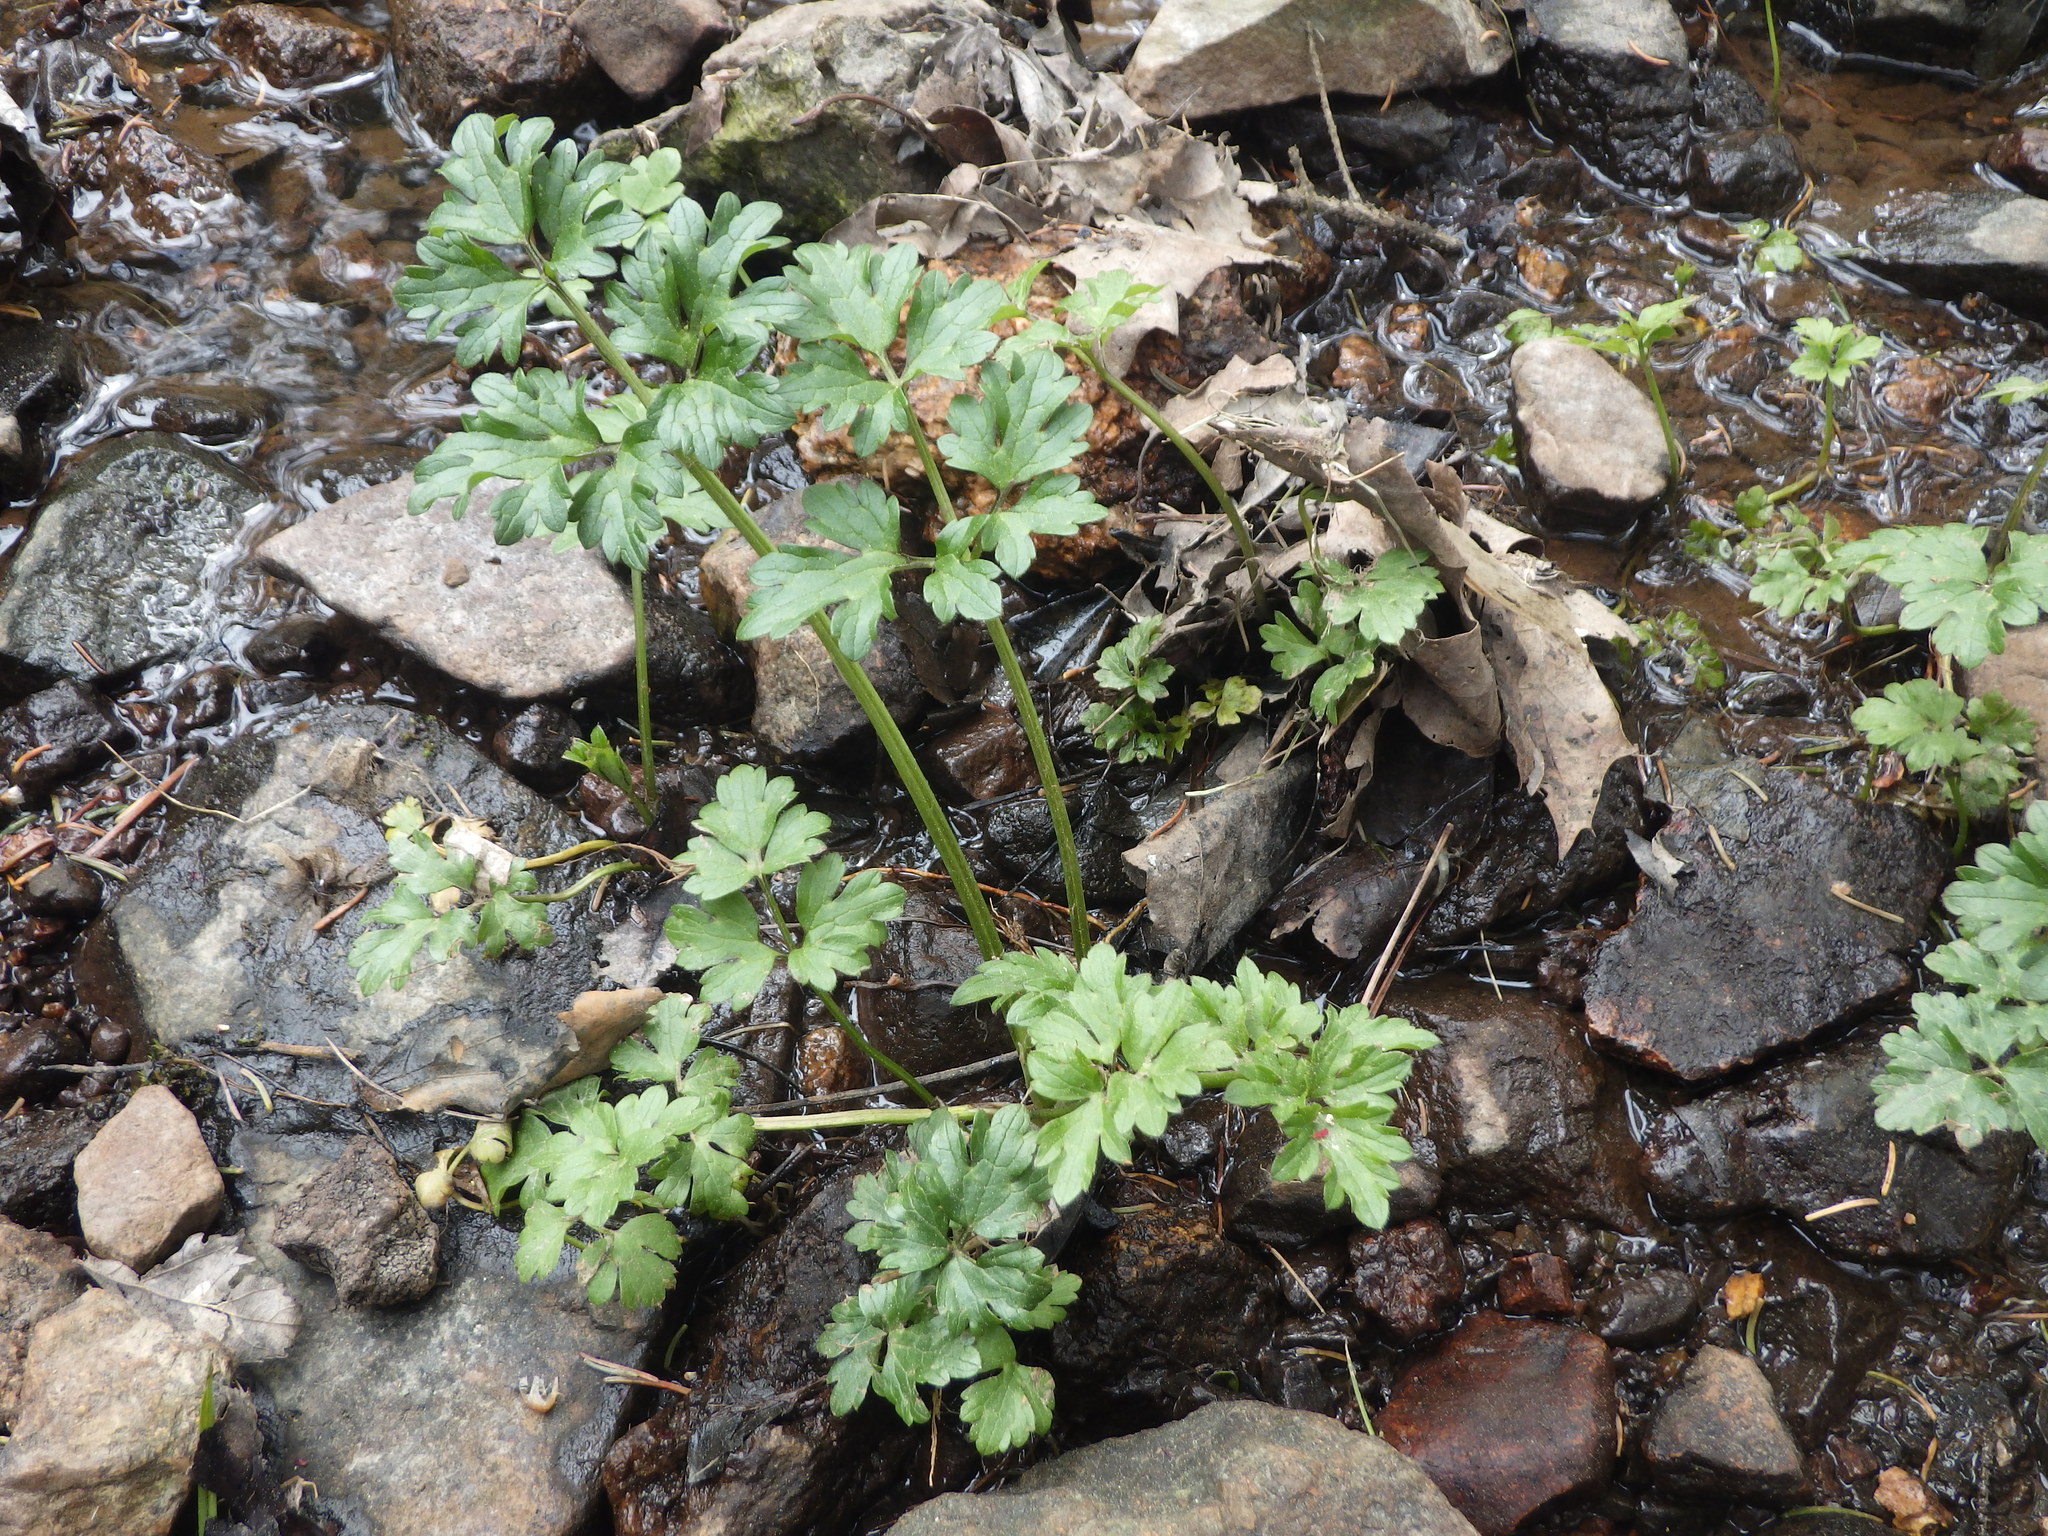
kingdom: Plantae
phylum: Tracheophyta
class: Magnoliopsida
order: Ranunculales
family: Ranunculaceae
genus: Ranunculus
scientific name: Ranunculus repens
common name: Creeping buttercup
